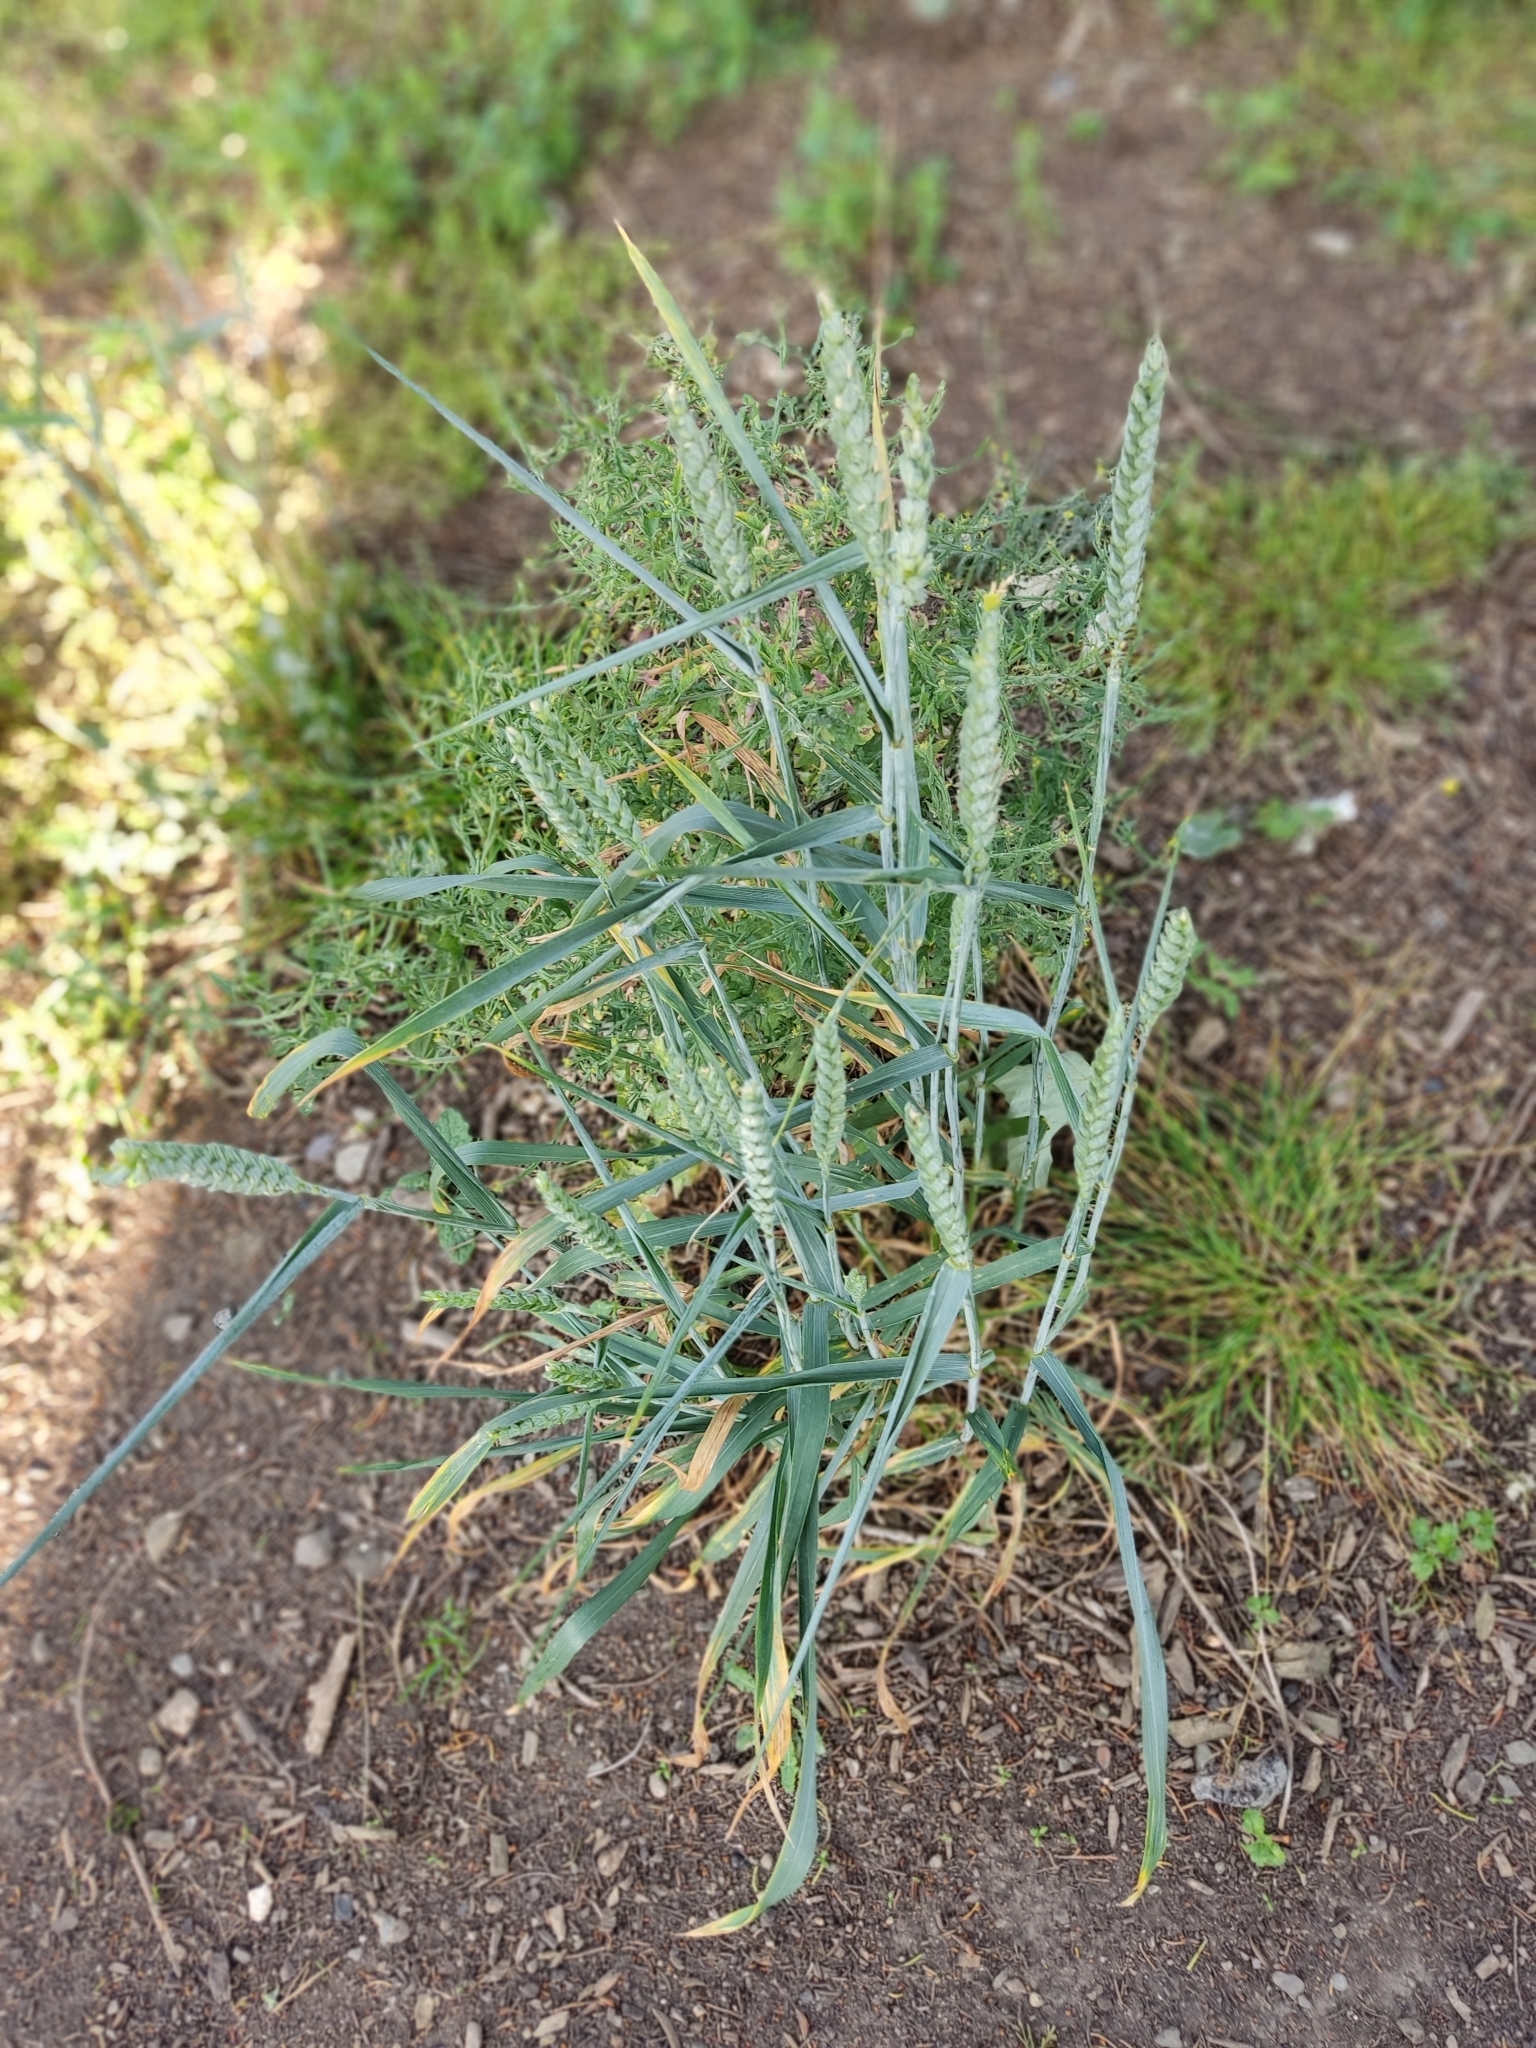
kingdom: Plantae
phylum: Tracheophyta
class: Liliopsida
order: Poales
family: Poaceae
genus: Triticum
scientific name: Triticum aestivum
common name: Common wheat
